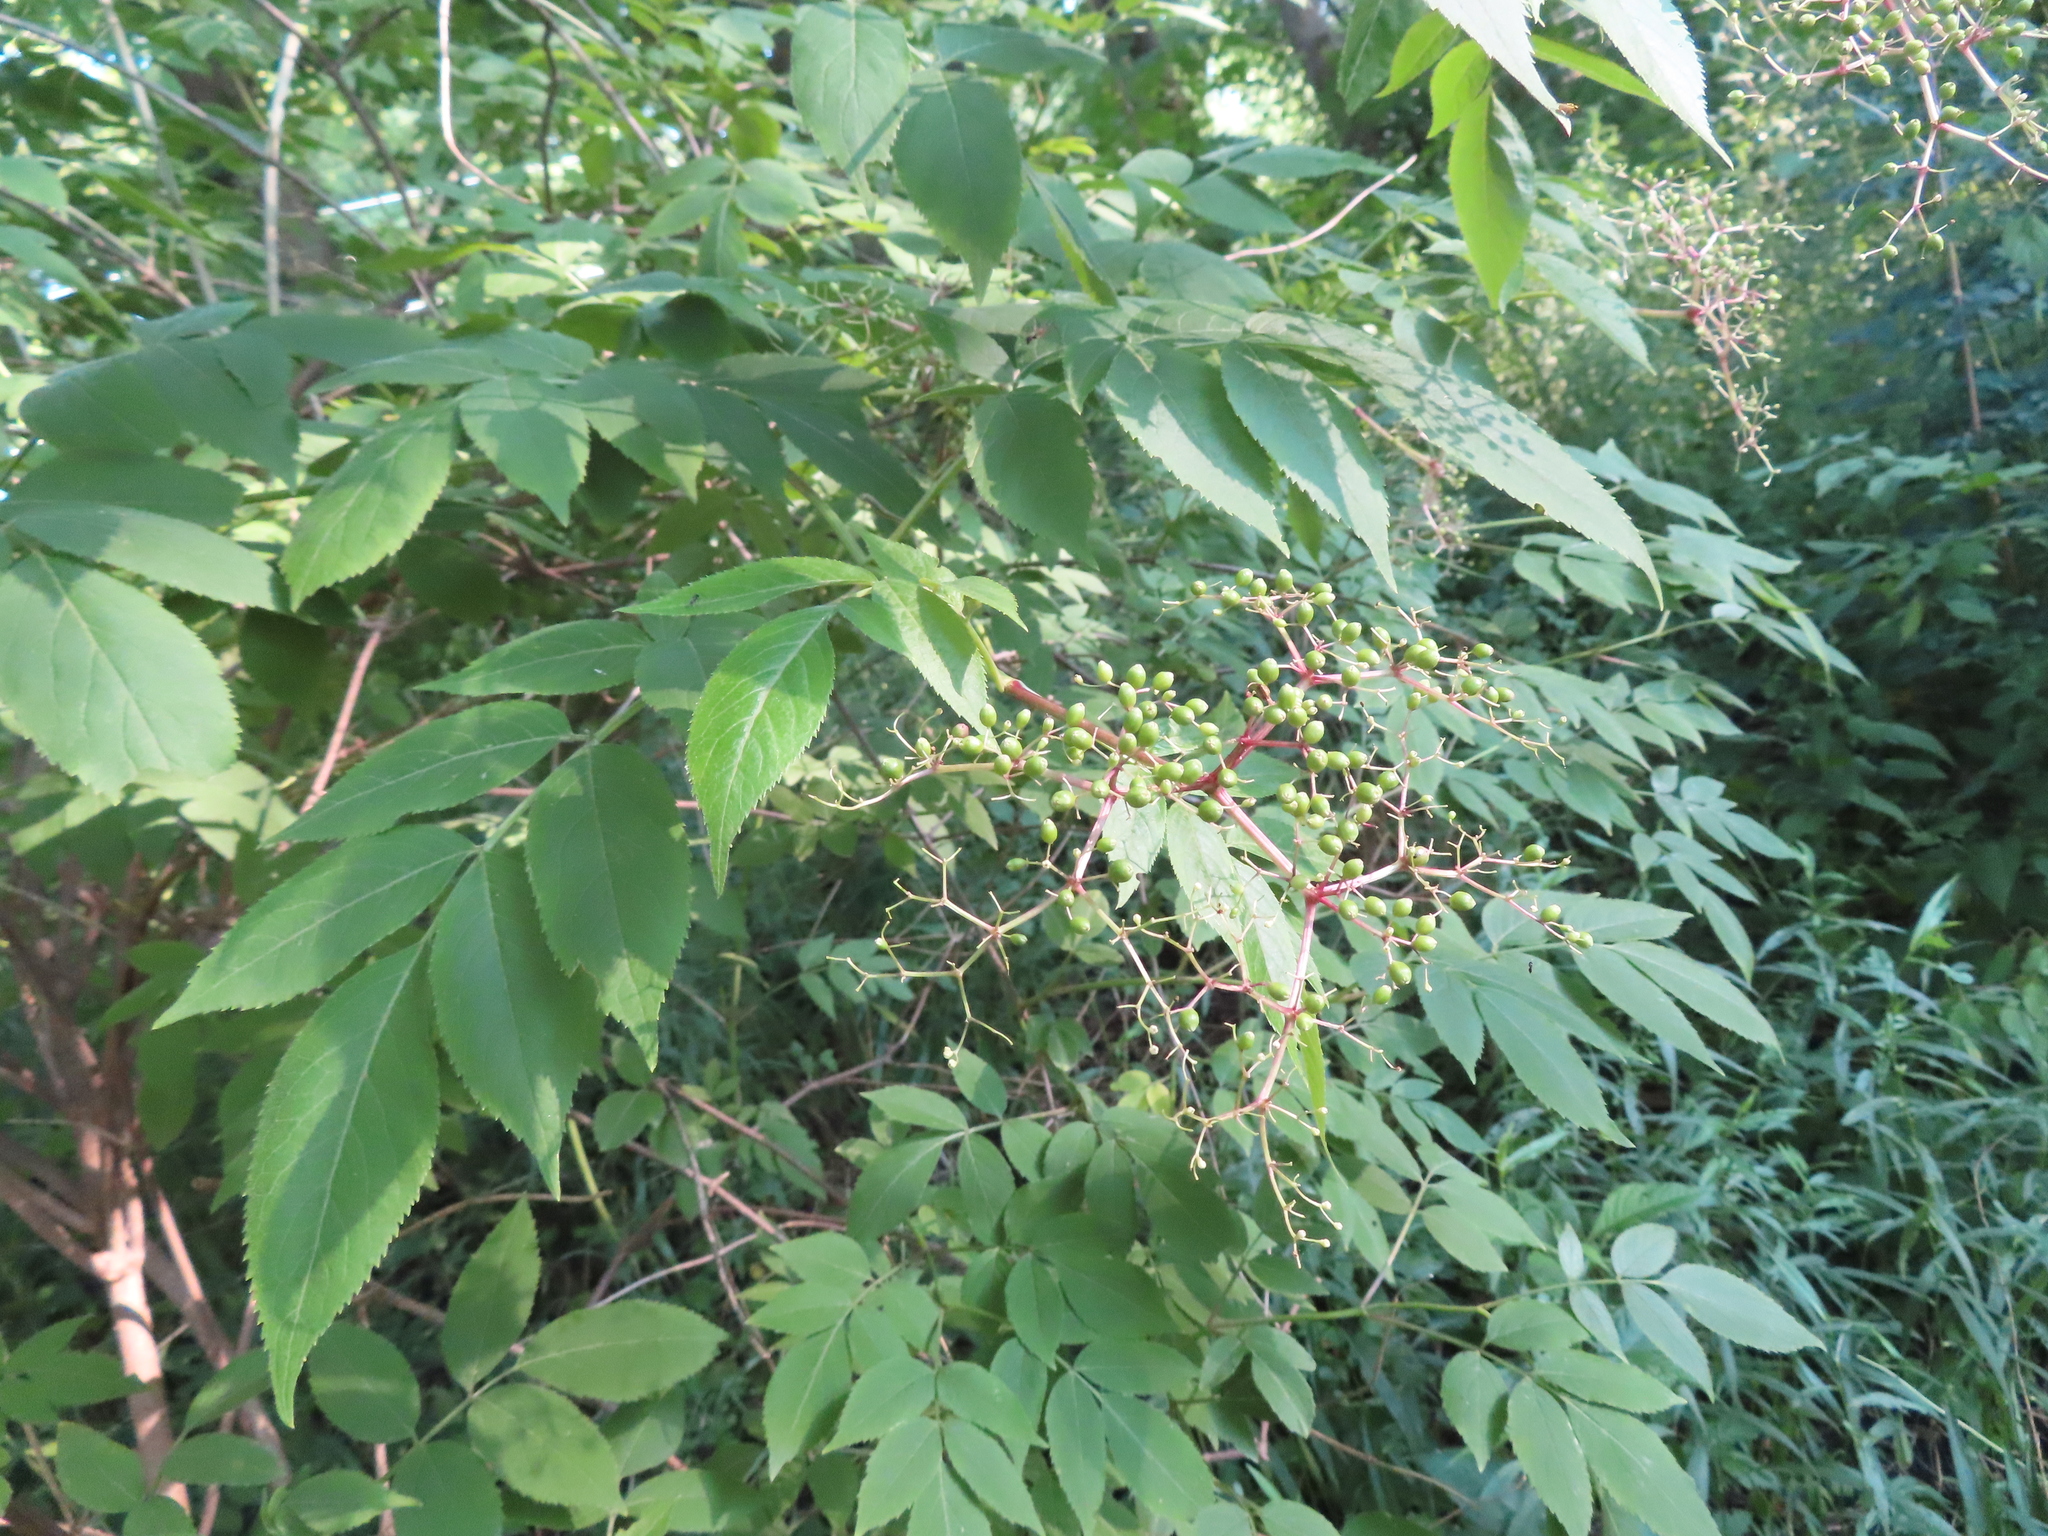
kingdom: Plantae
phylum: Tracheophyta
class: Magnoliopsida
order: Dipsacales
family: Viburnaceae
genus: Sambucus
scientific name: Sambucus canadensis
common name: American elder
